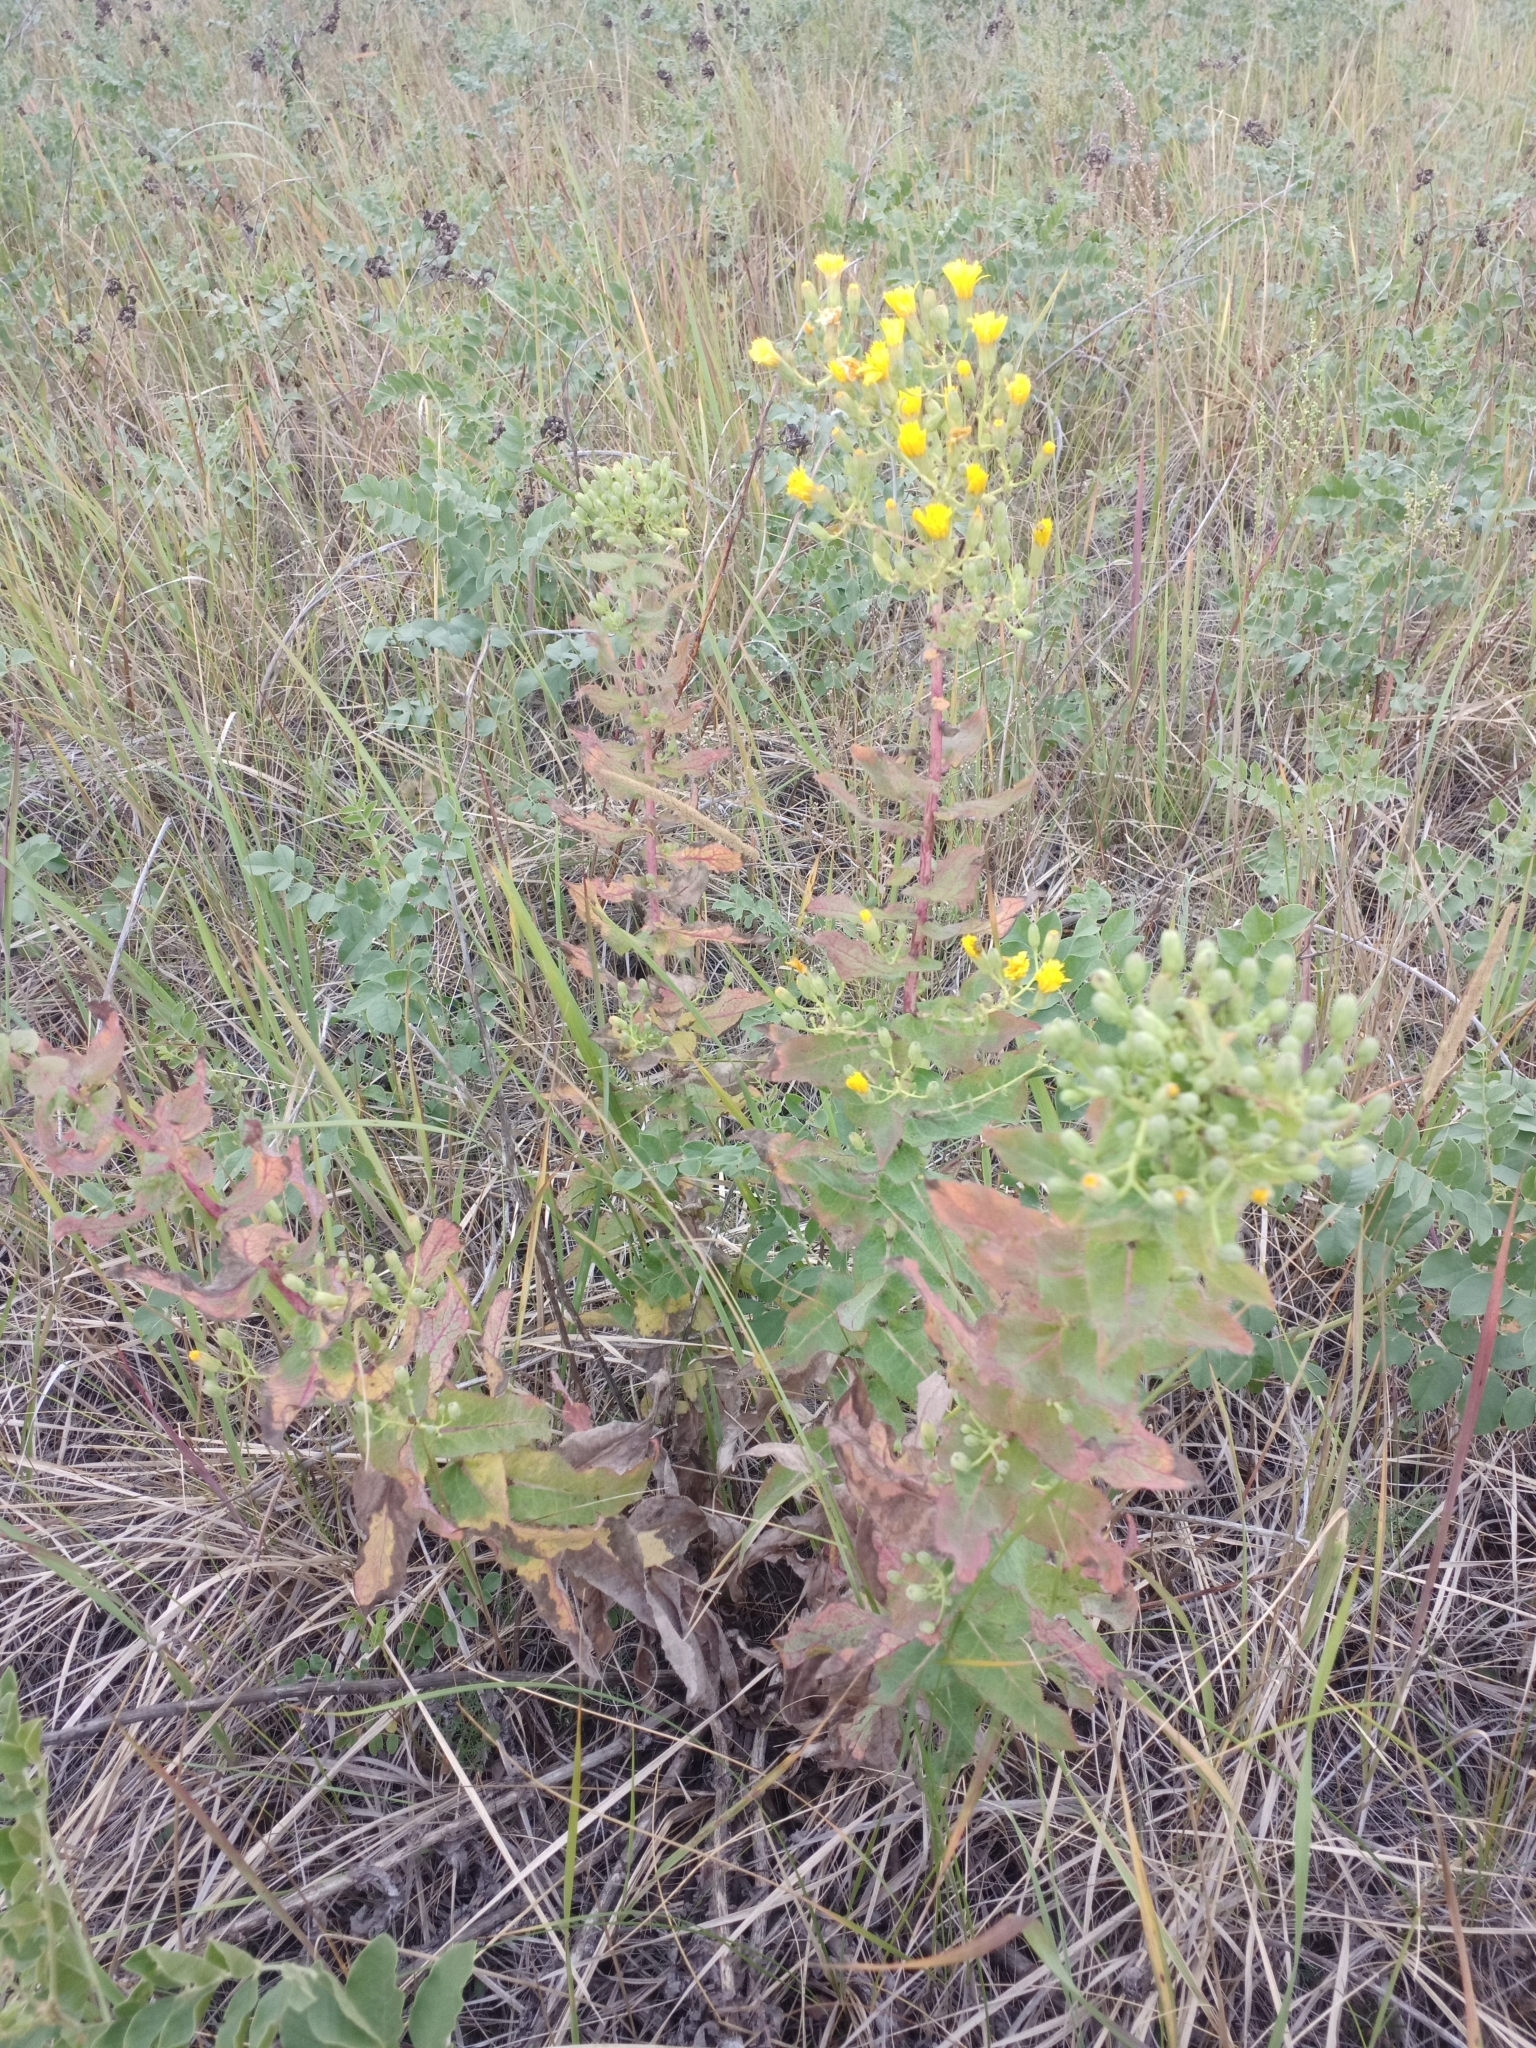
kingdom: Plantae
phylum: Tracheophyta
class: Magnoliopsida
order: Asterales
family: Asteraceae
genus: Hieracium
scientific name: Hieracium robustum
